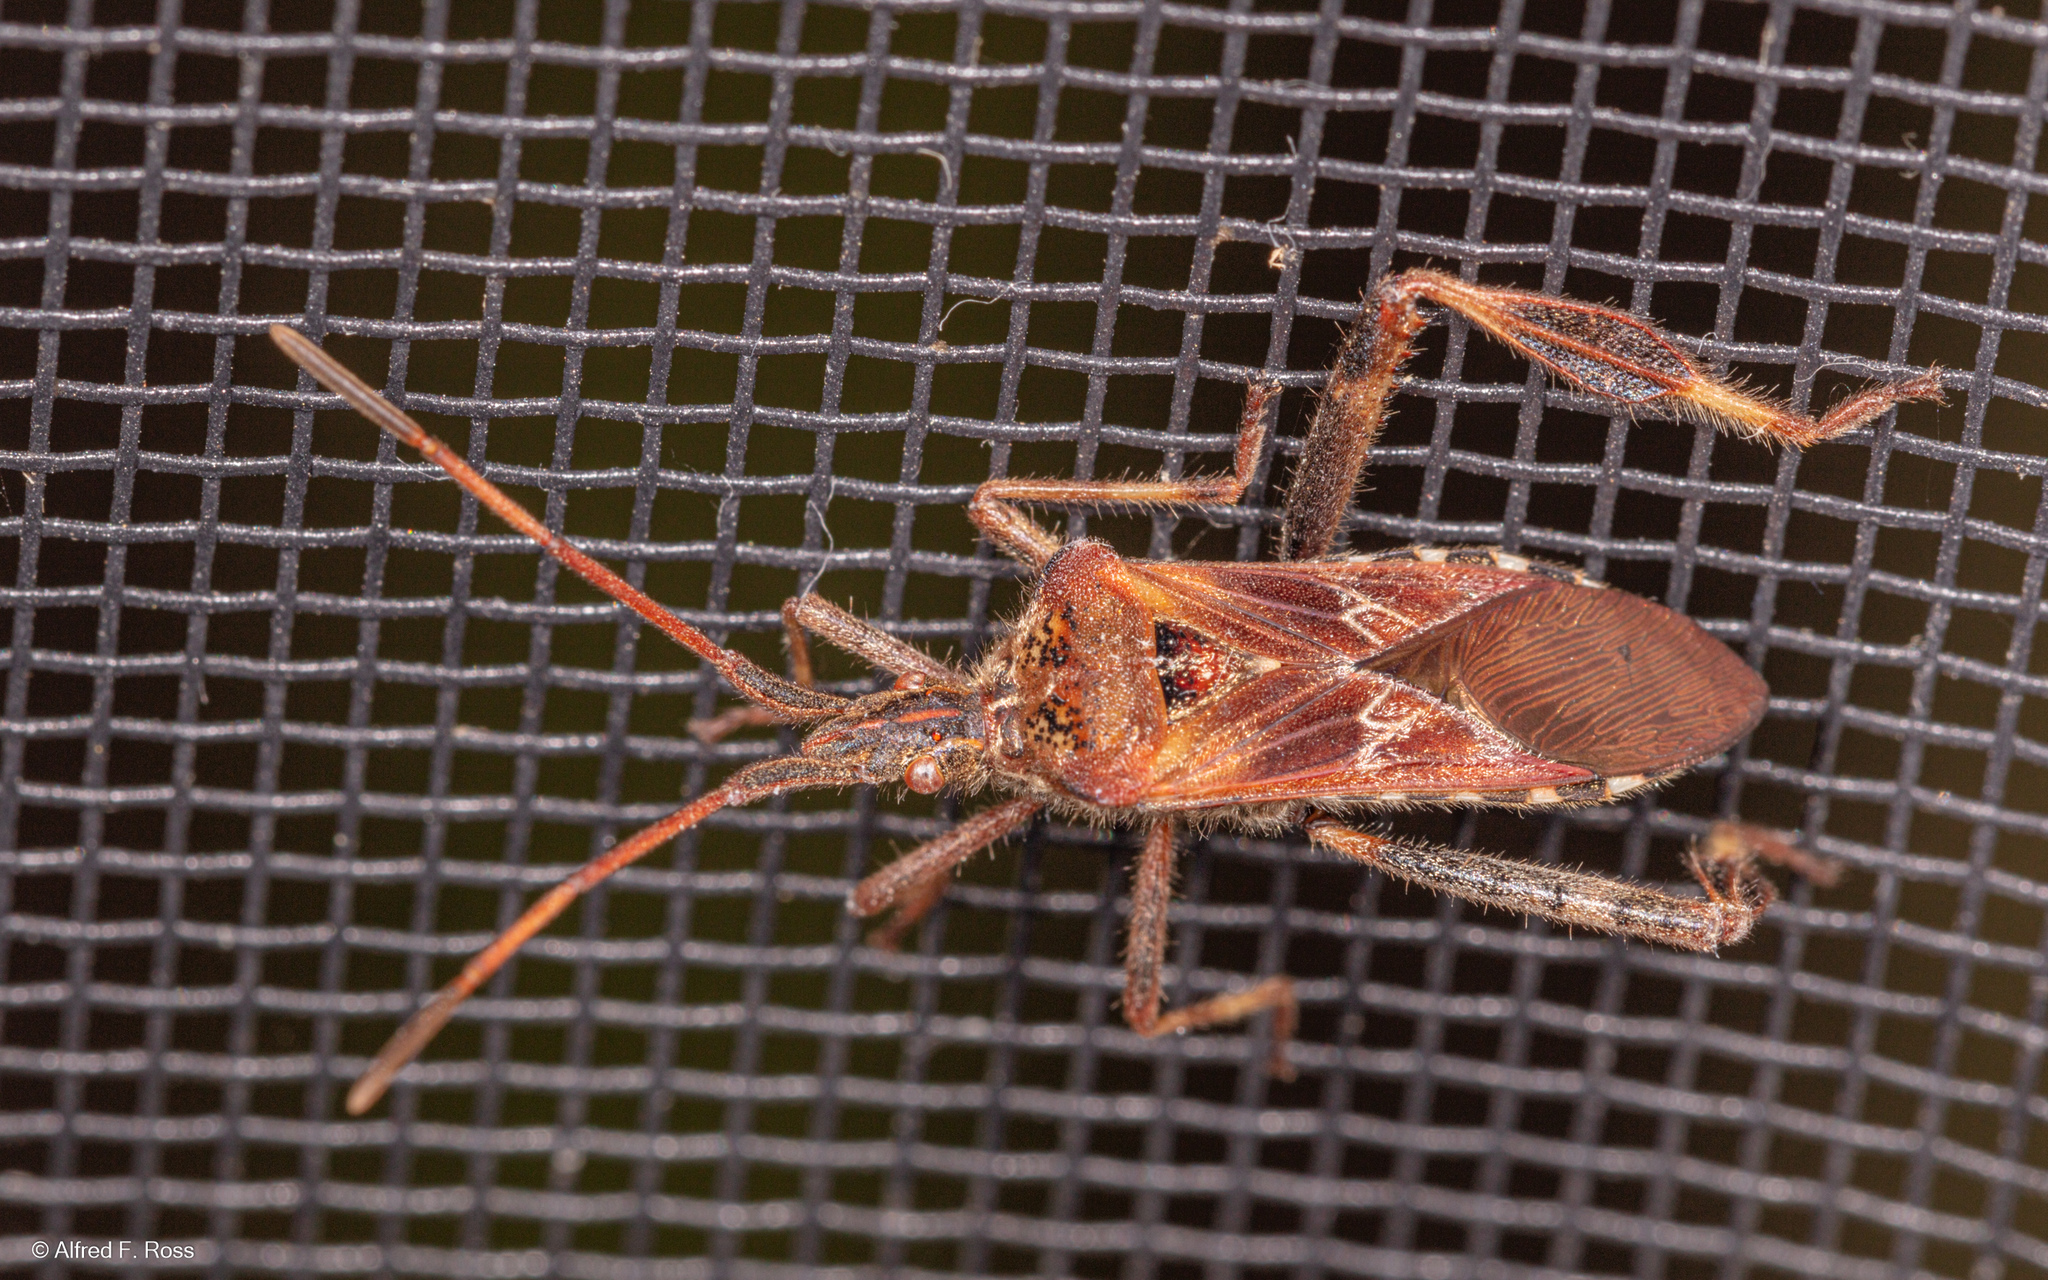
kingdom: Animalia
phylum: Arthropoda
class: Insecta
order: Hemiptera
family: Coreidae
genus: Leptoglossus
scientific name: Leptoglossus occidentalis
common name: Western conifer-seed bug
